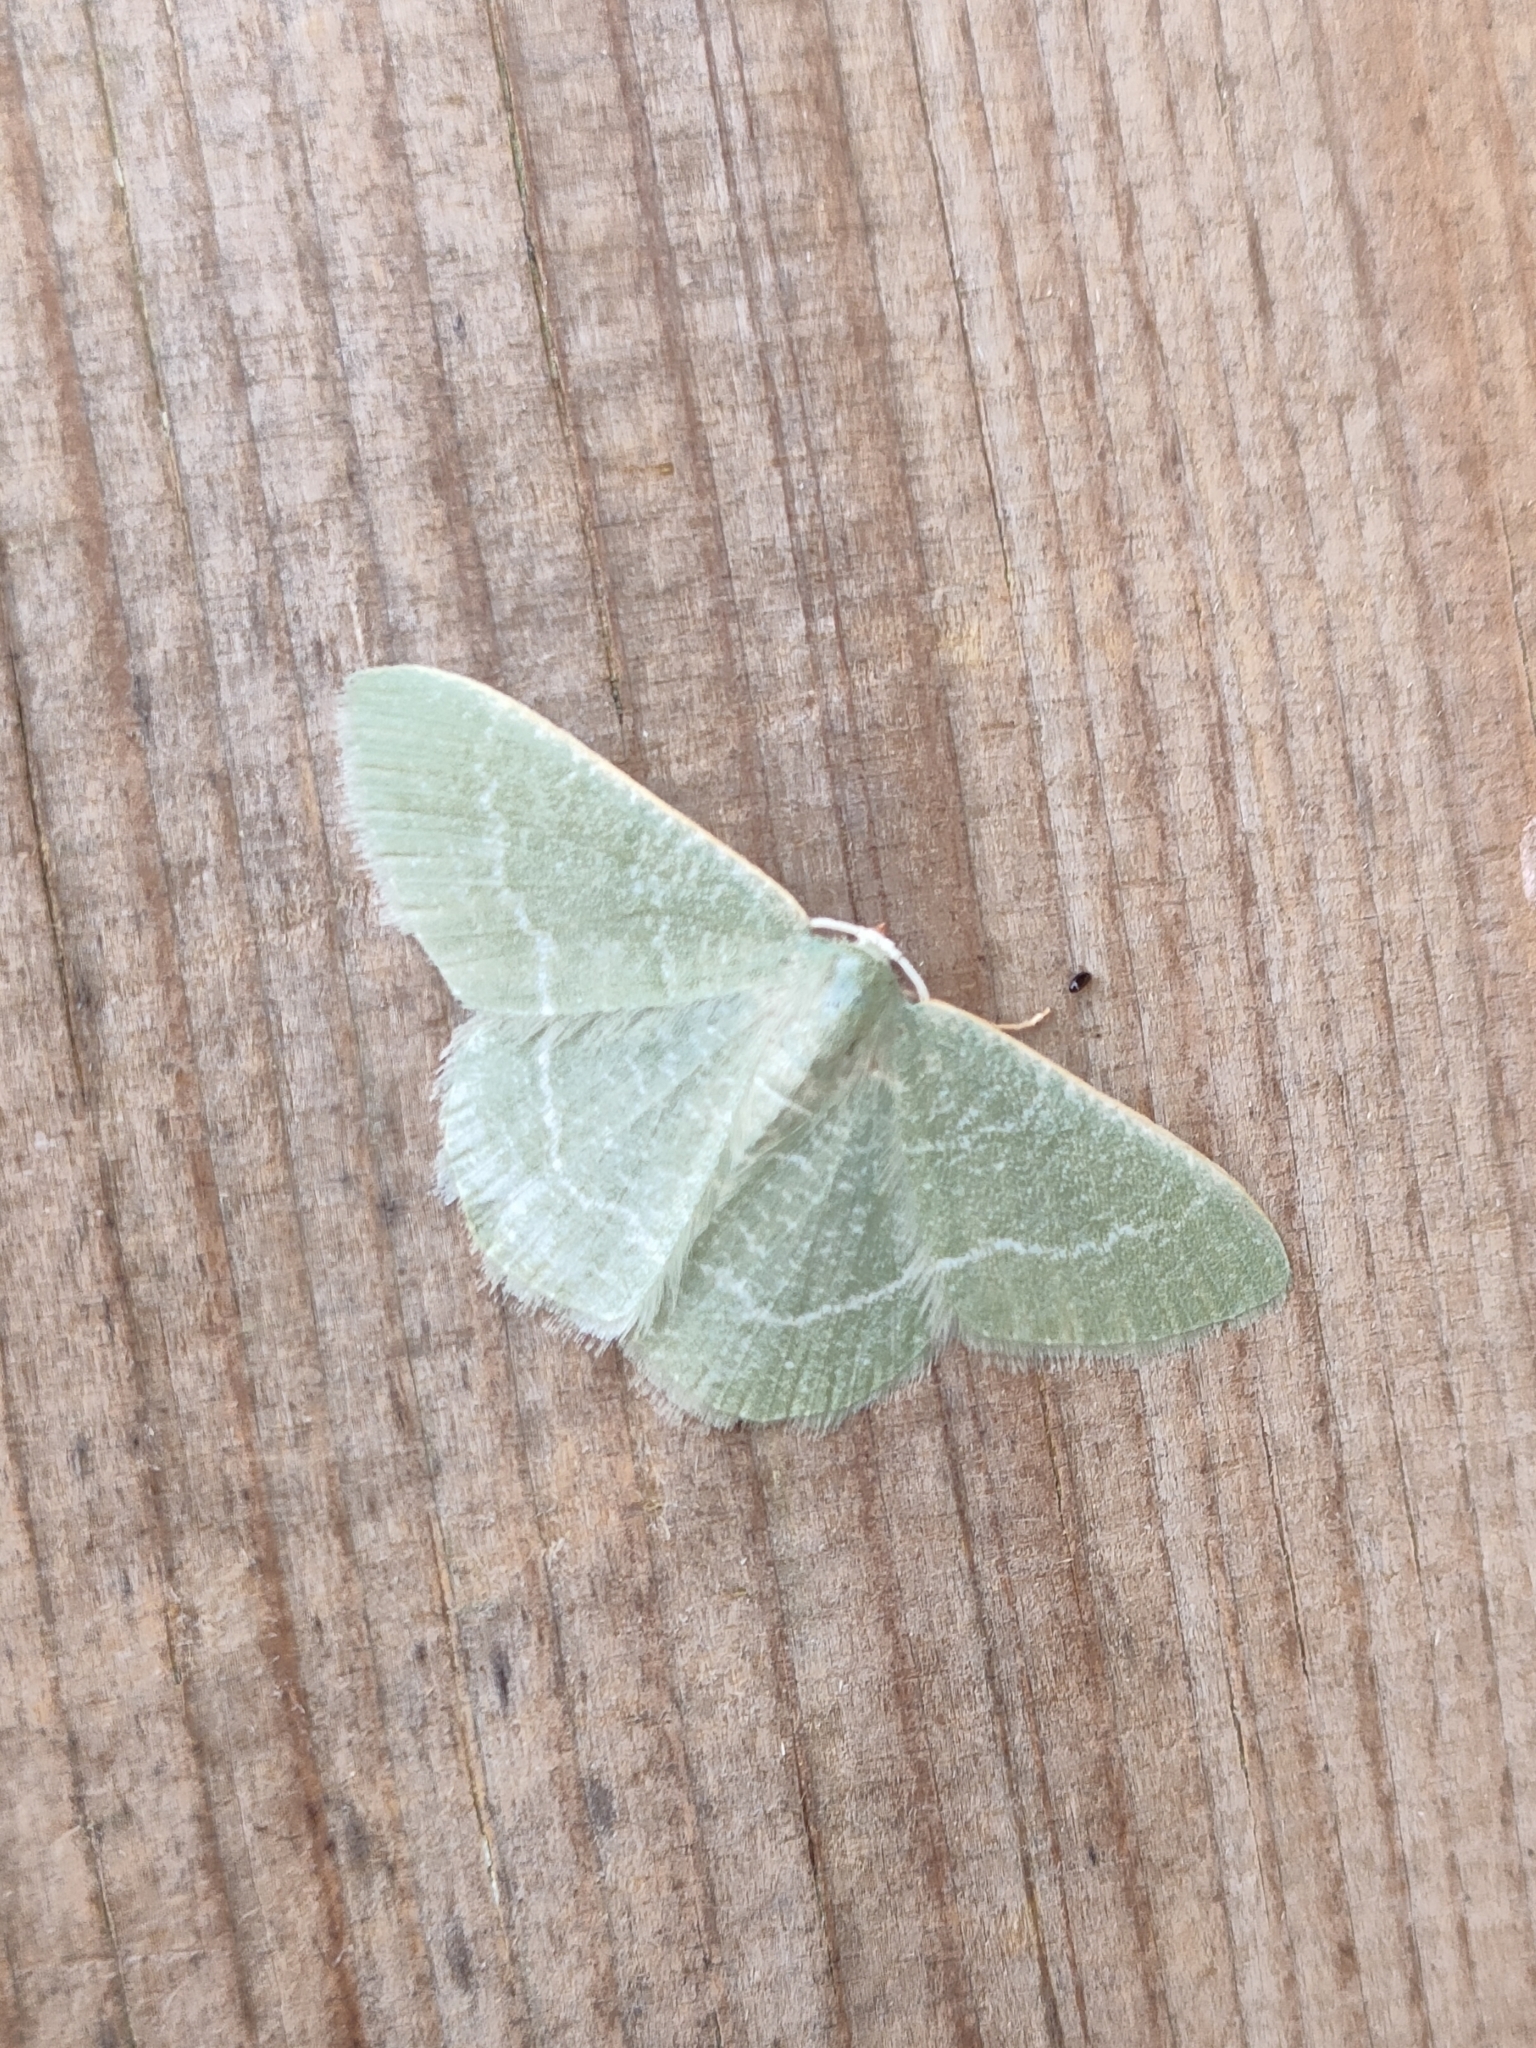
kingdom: Animalia
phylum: Arthropoda
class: Insecta
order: Lepidoptera
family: Geometridae
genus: Chlorissa
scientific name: Chlorissa etruscaria
